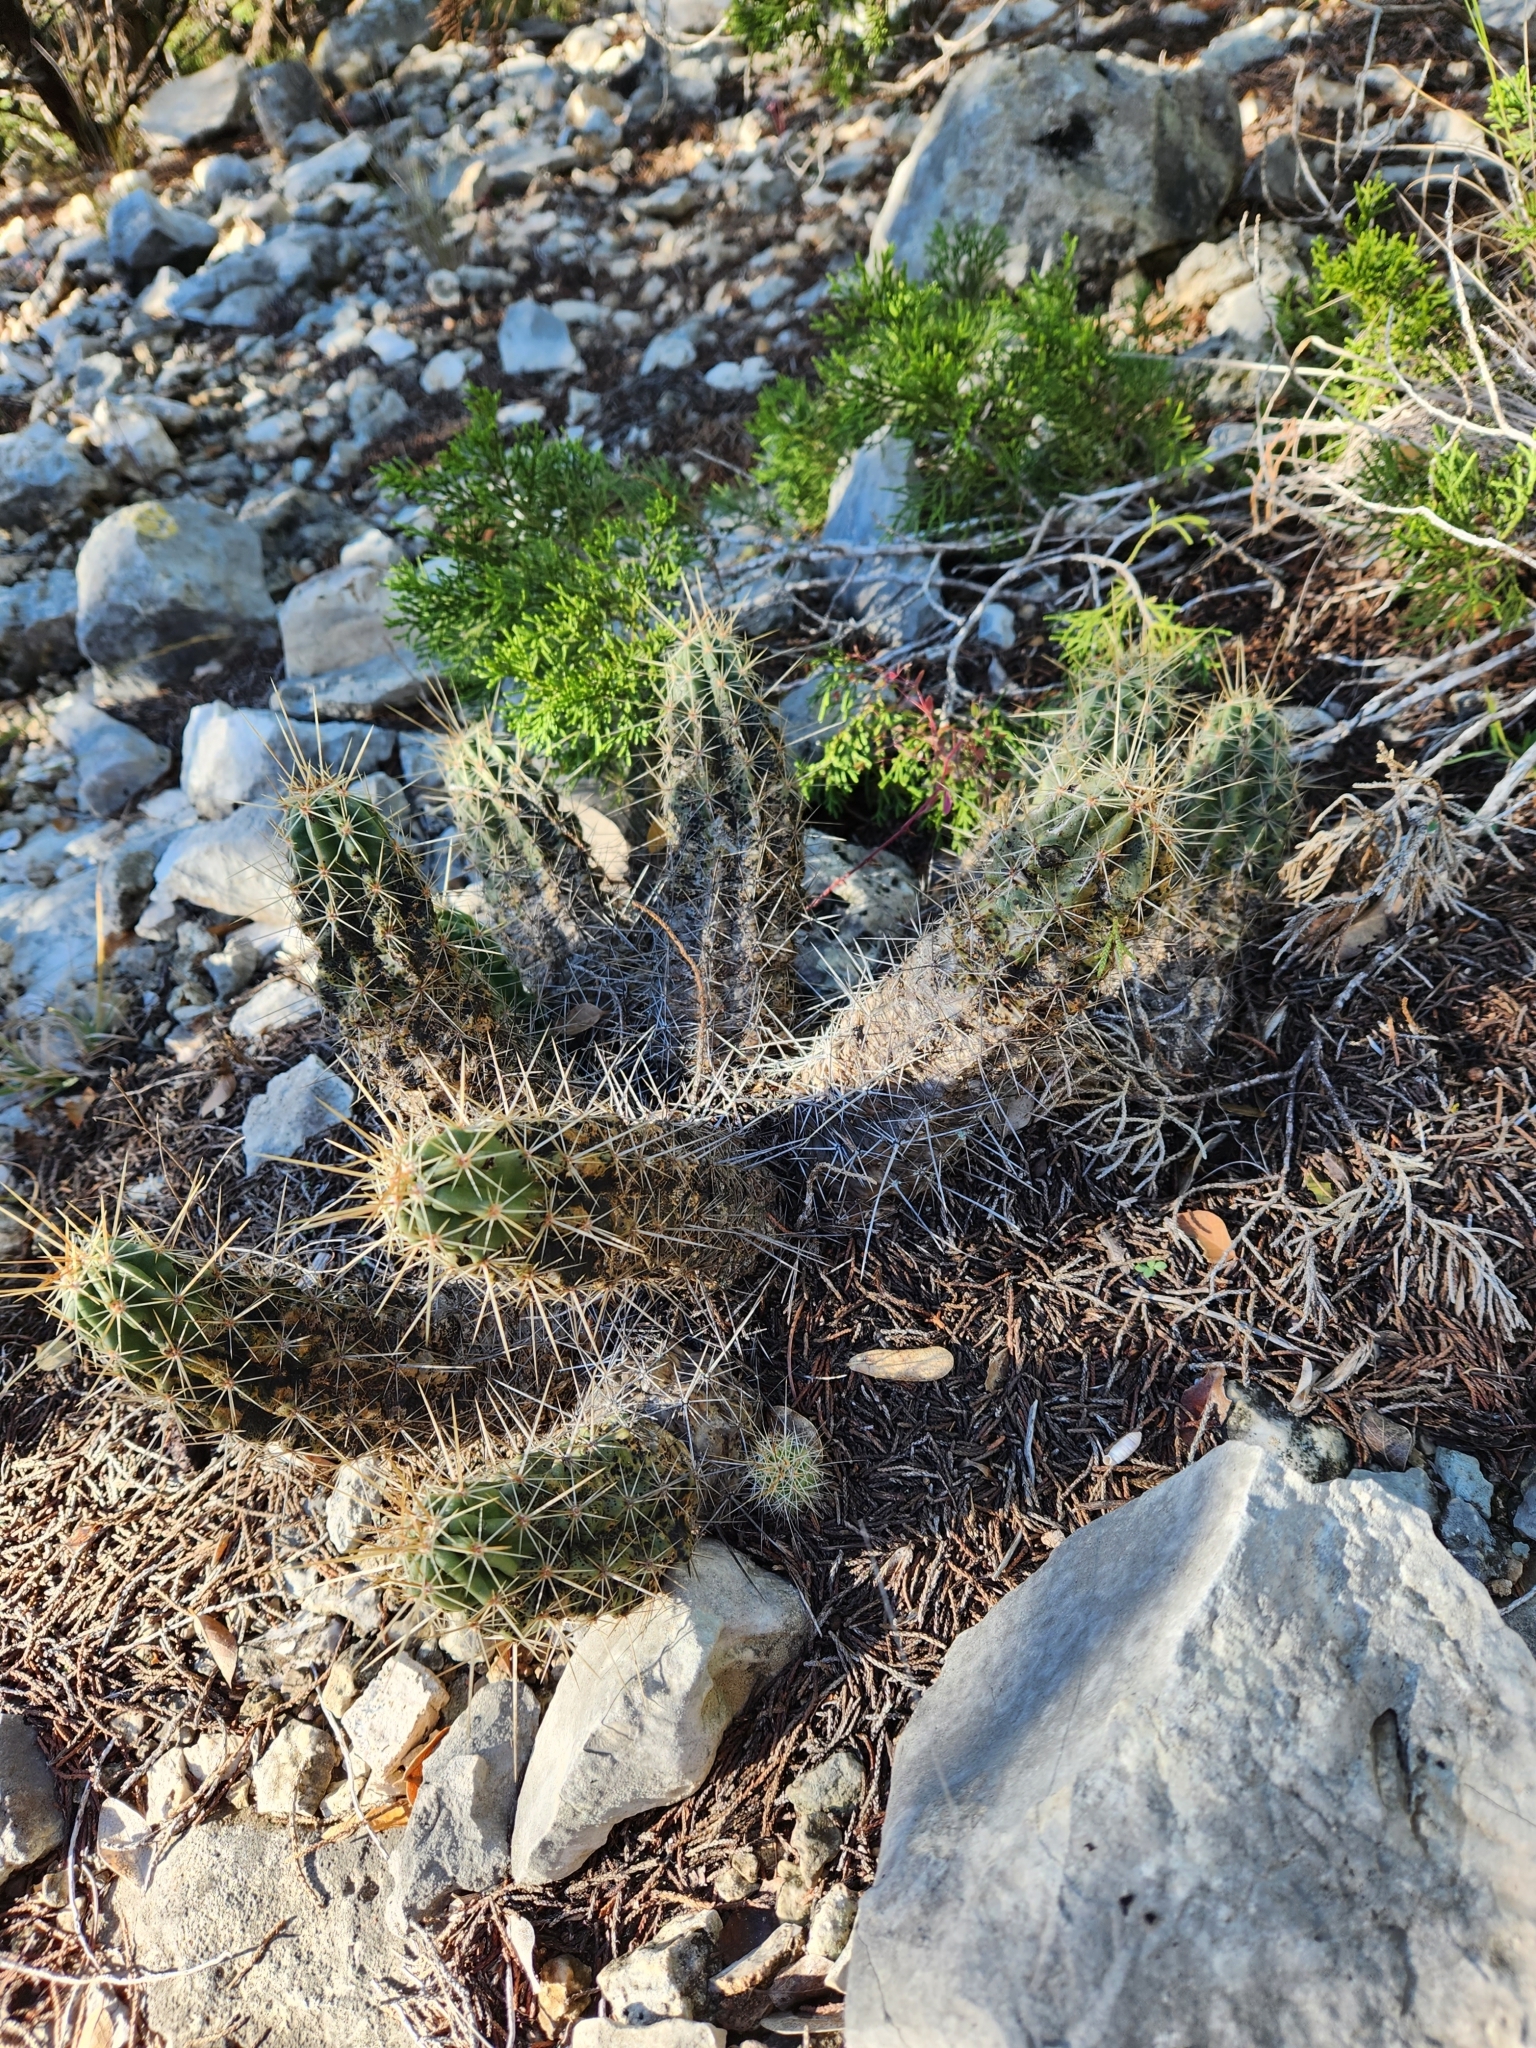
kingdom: Plantae
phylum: Tracheophyta
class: Magnoliopsida
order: Caryophyllales
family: Cactaceae
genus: Echinocereus
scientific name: Echinocereus enneacanthus
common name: Pitaya
